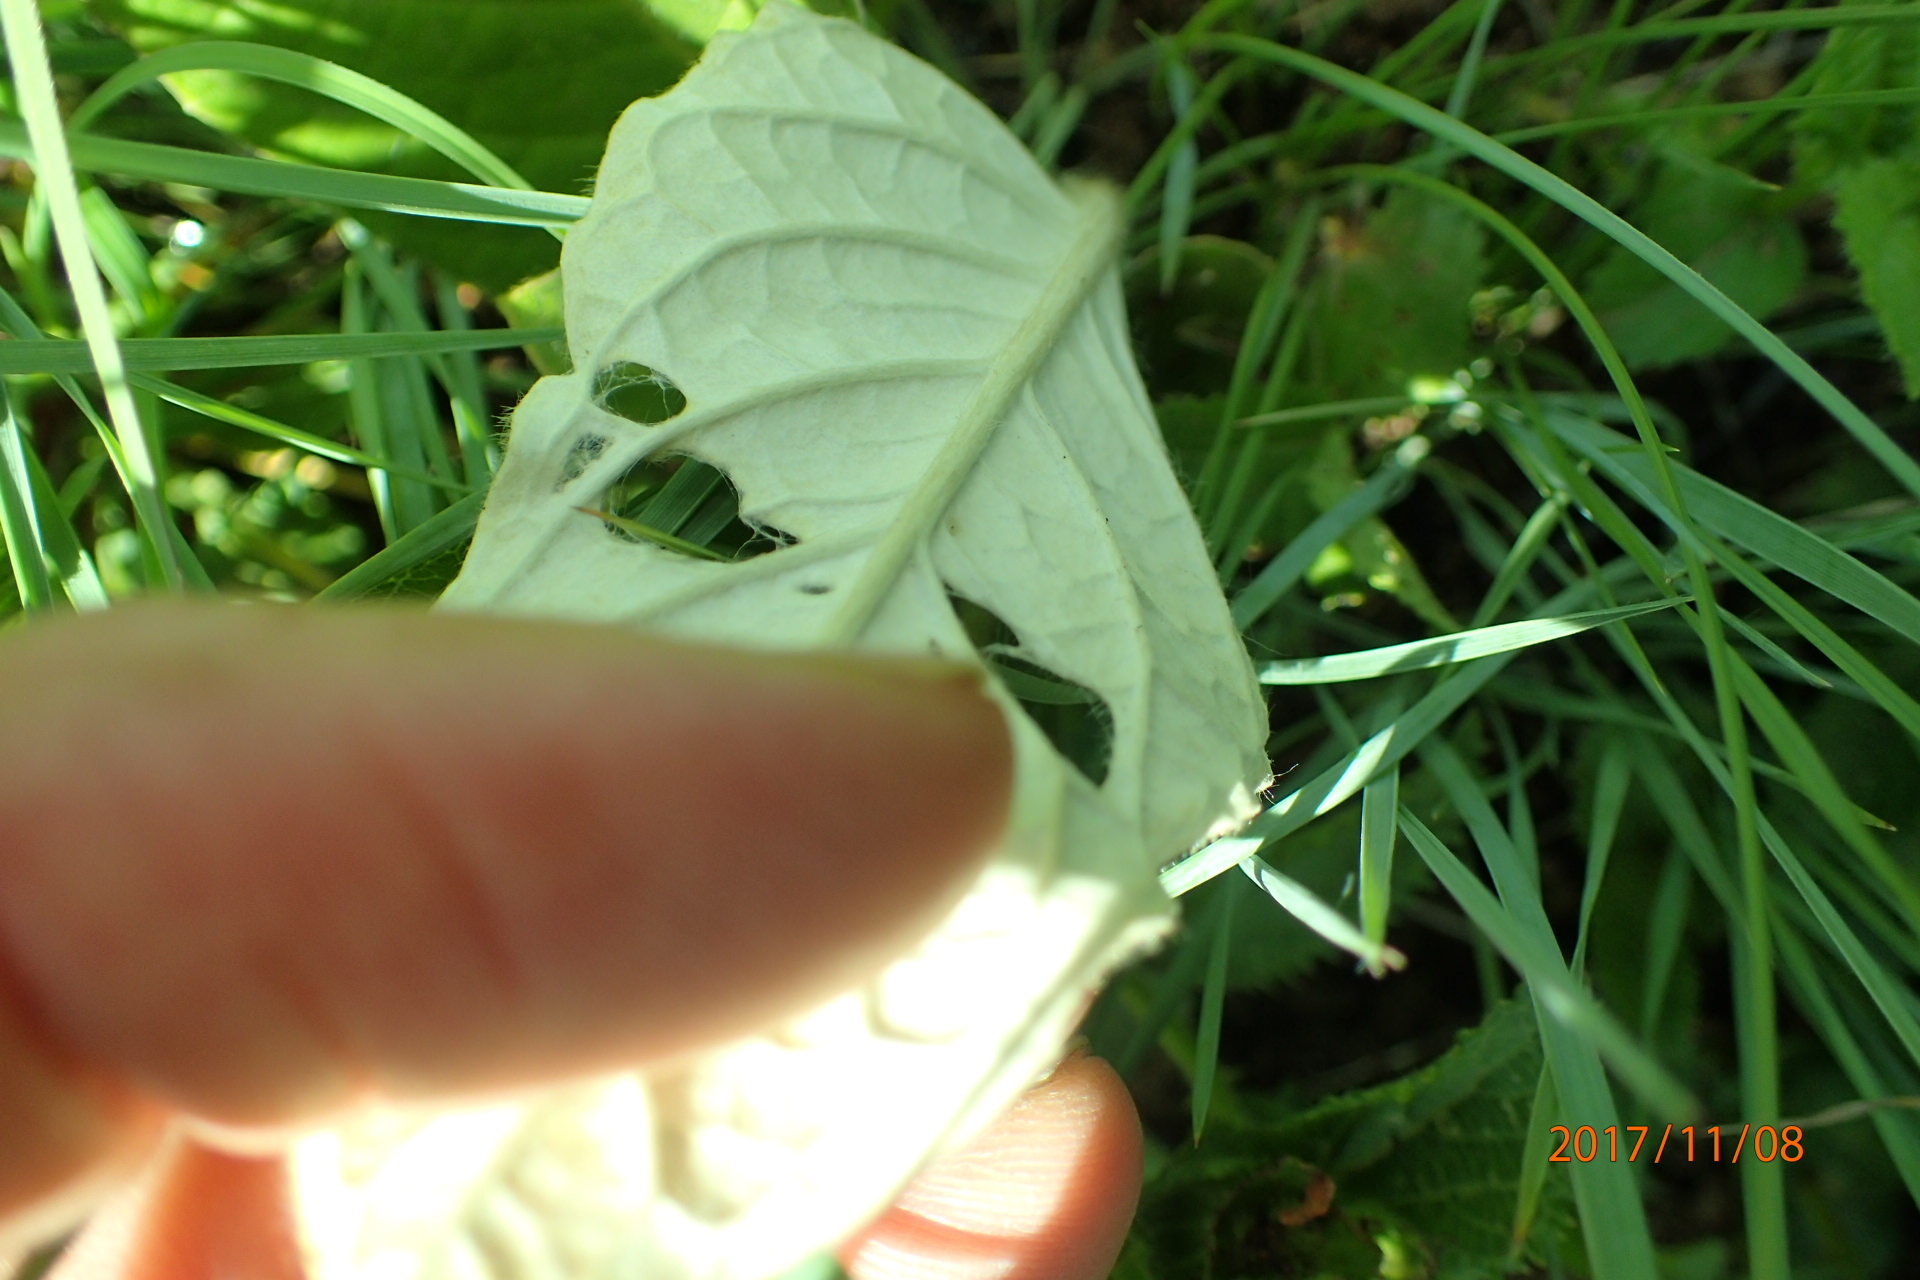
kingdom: Plantae
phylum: Tracheophyta
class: Magnoliopsida
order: Asterales
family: Asteraceae
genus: Gerbera
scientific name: Gerbera ambigua
